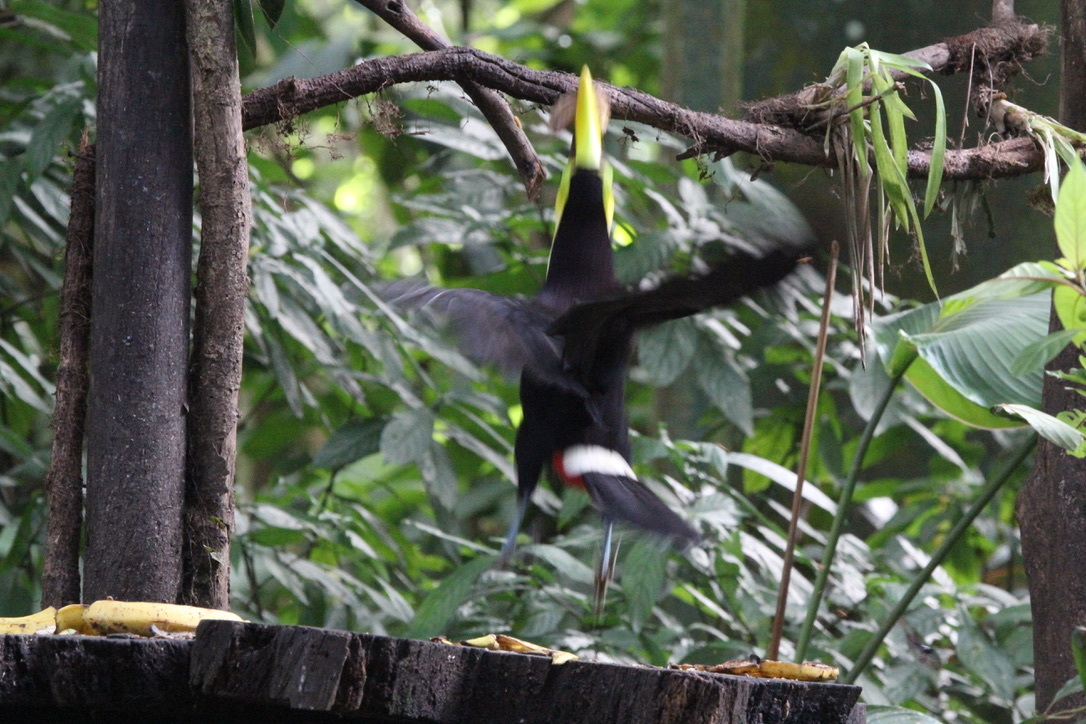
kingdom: Animalia
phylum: Chordata
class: Aves
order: Piciformes
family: Ramphastidae
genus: Ramphastos
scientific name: Ramphastos ambiguus
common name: Yellow-throated toucan
